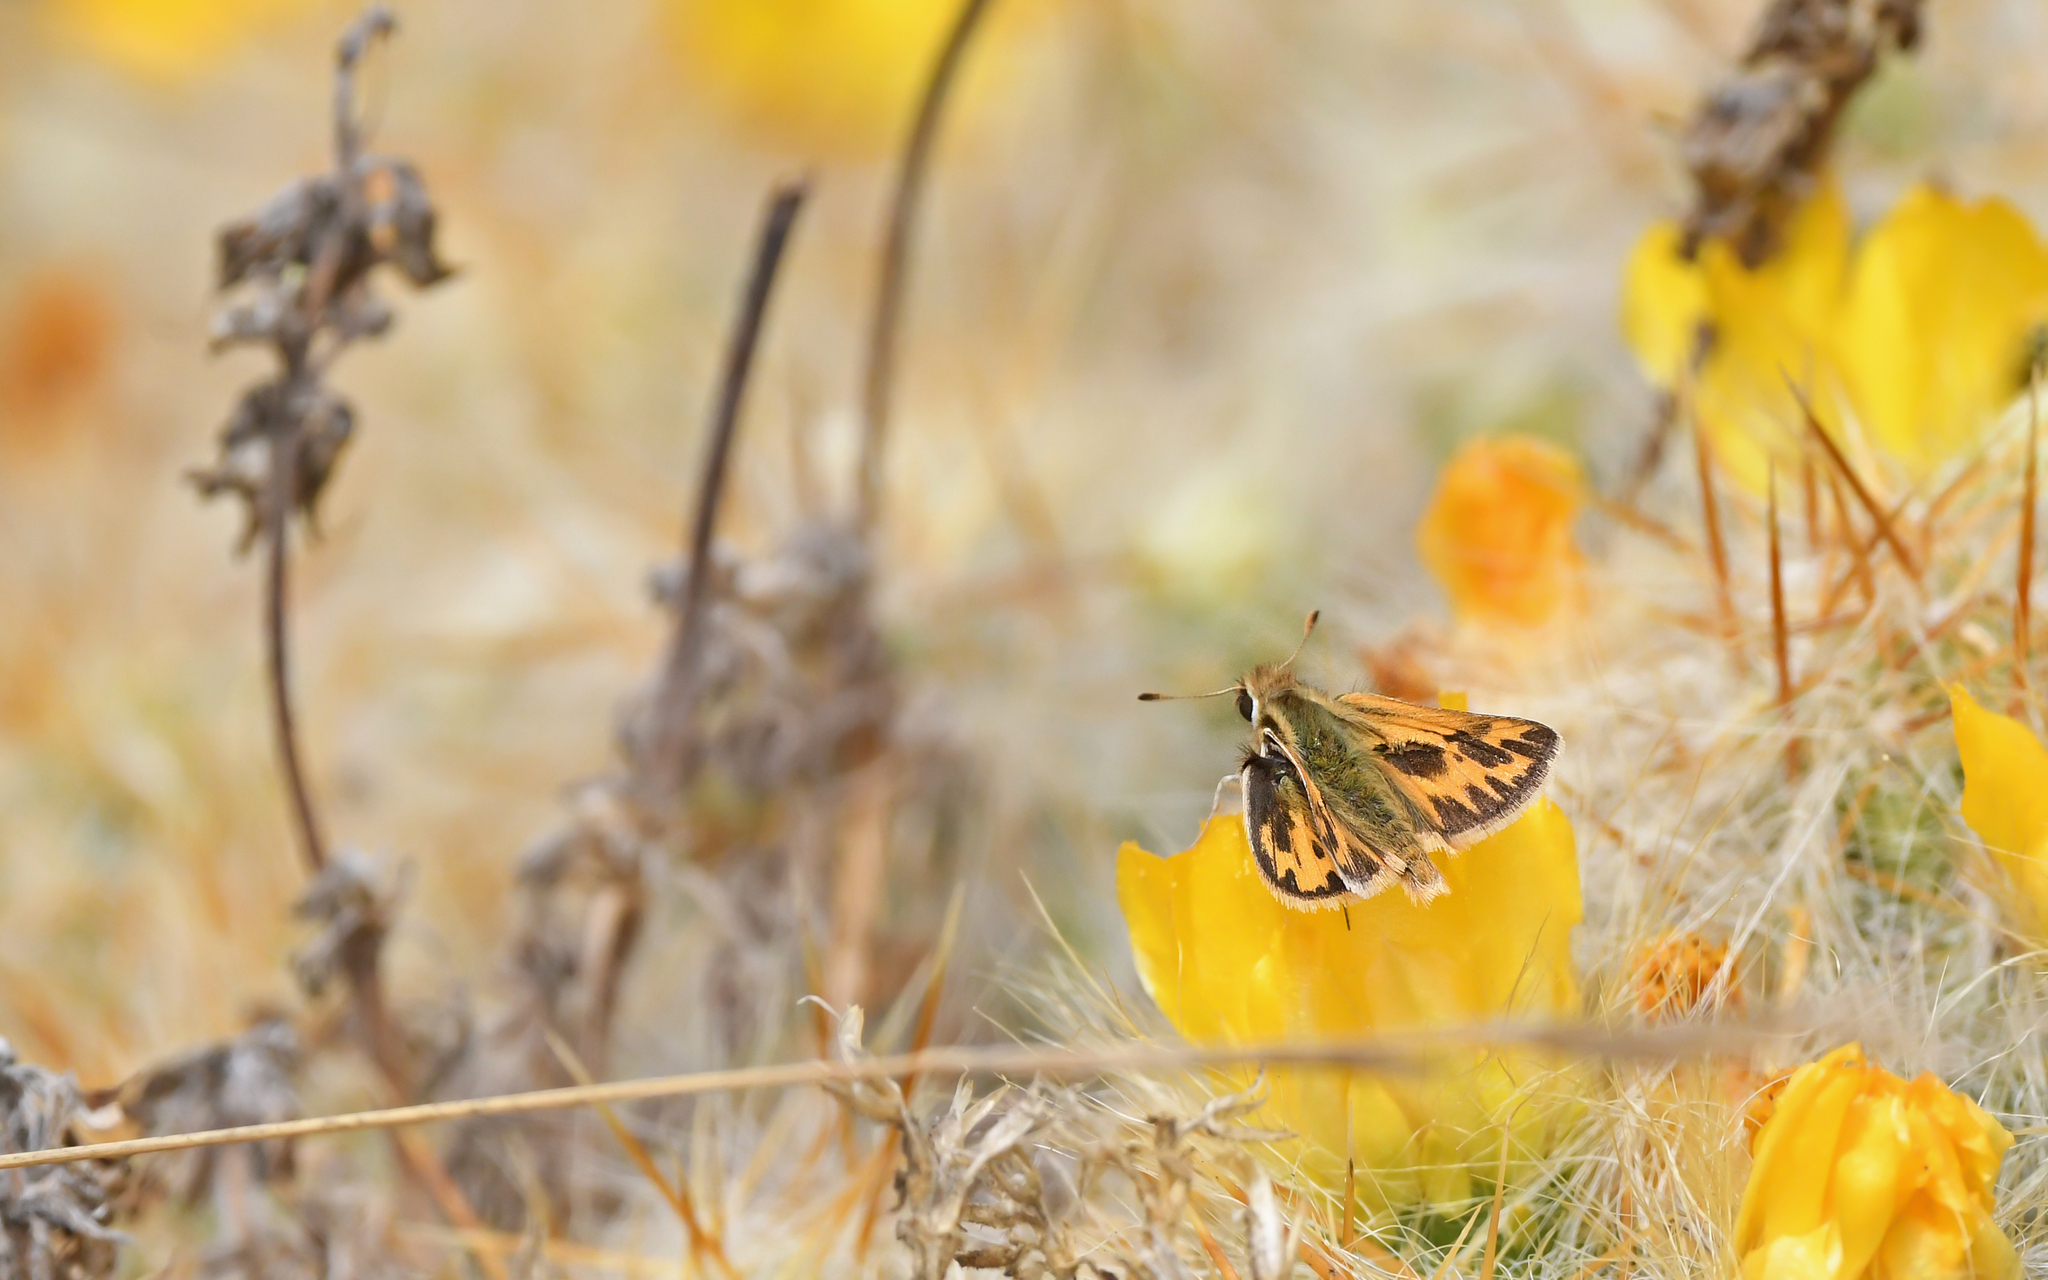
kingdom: Animalia
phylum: Arthropoda
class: Insecta
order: Lepidoptera
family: Hesperiidae
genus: Hylephila
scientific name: Hylephila boulleti
